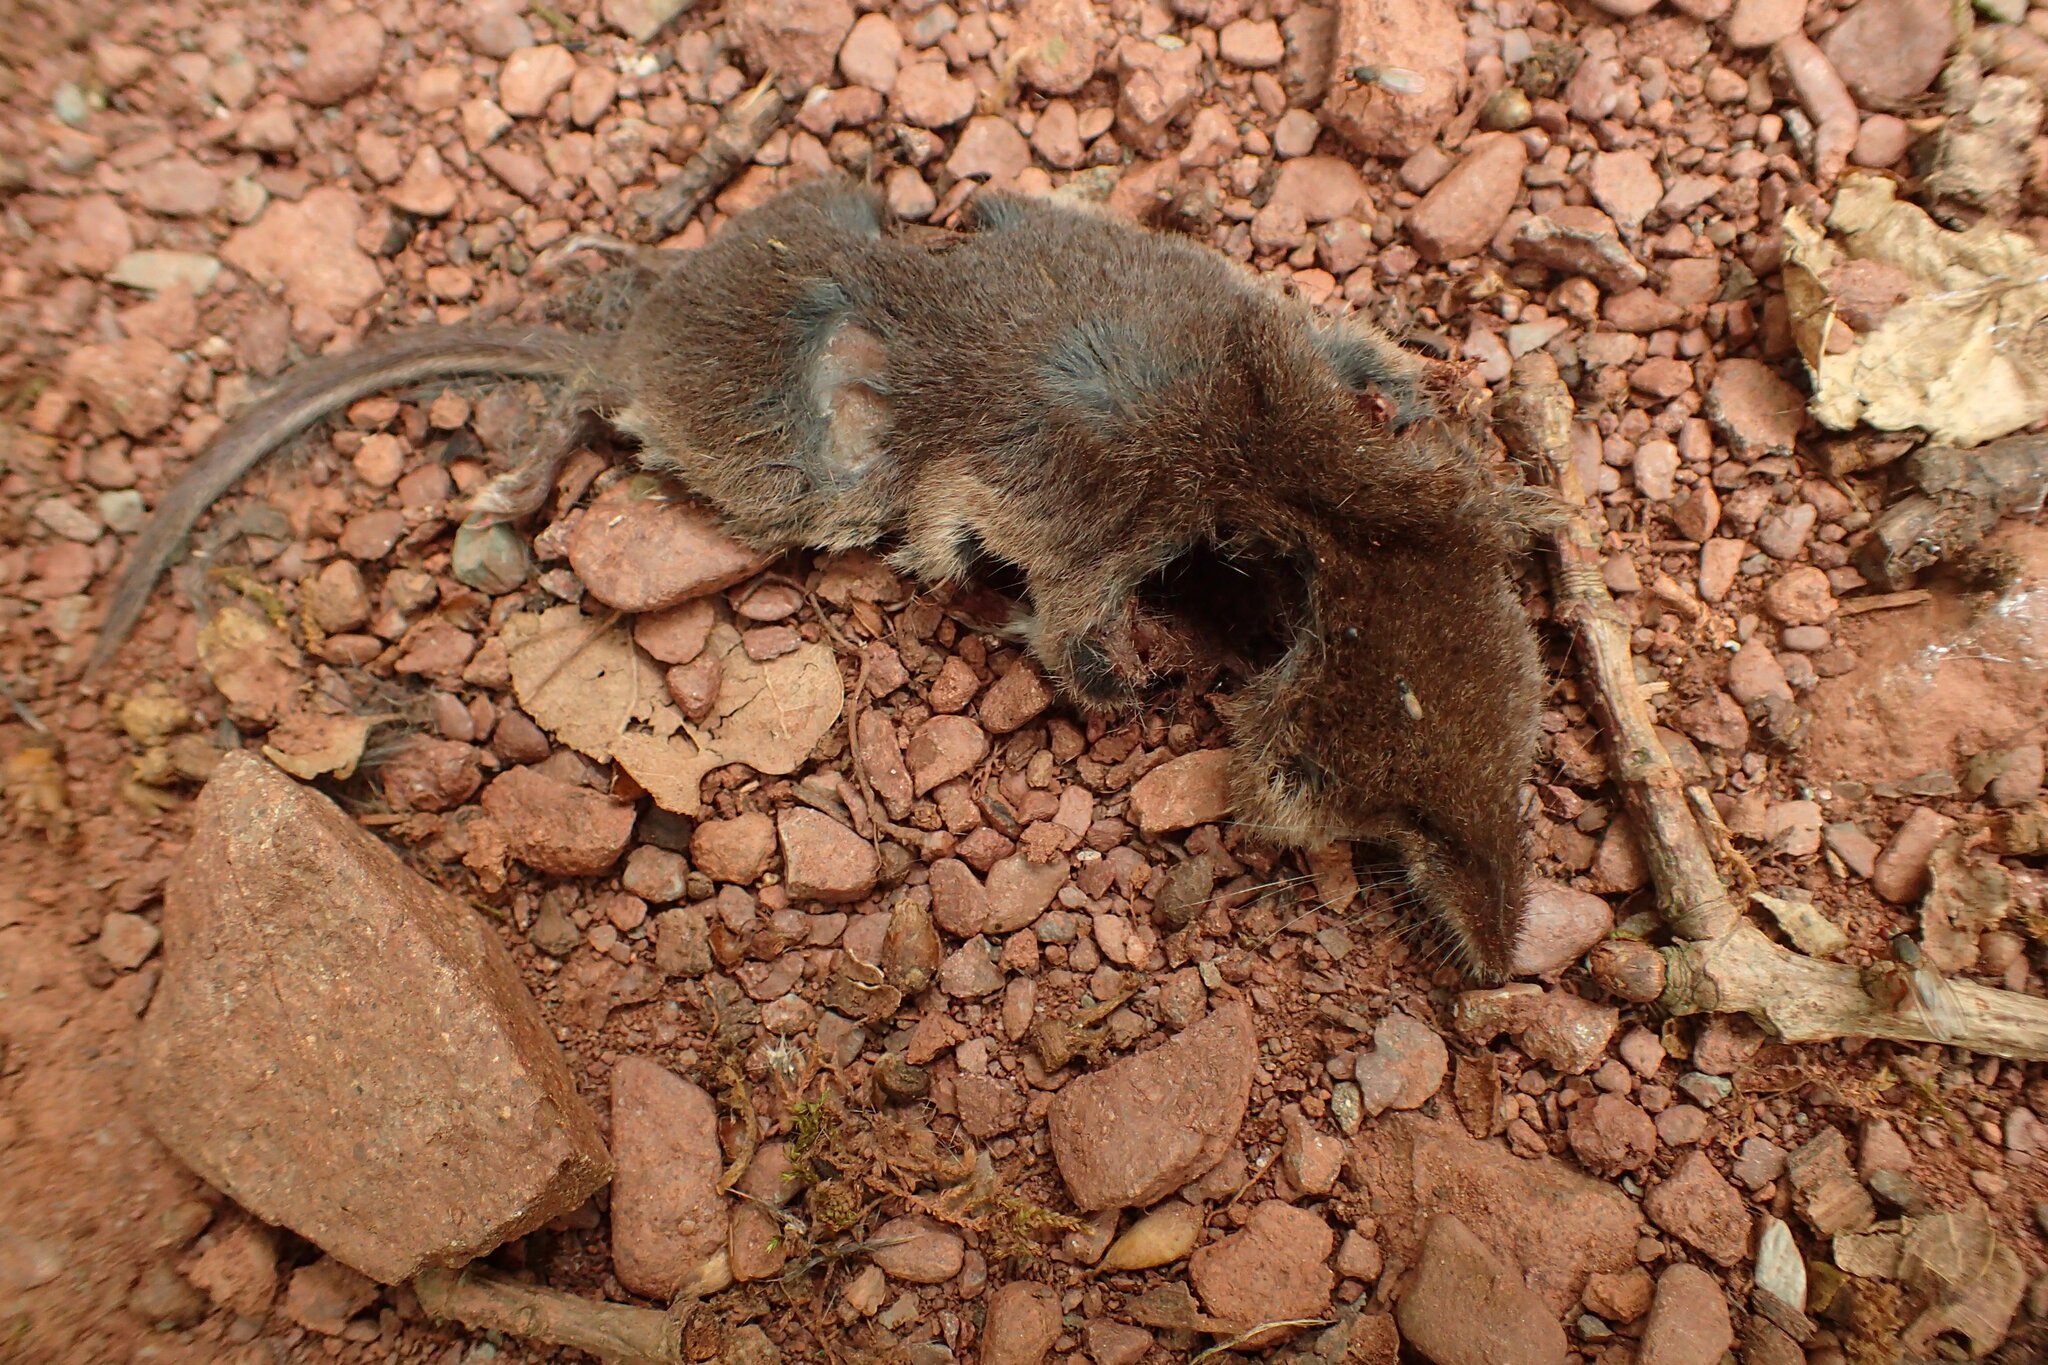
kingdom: Animalia
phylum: Chordata
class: Mammalia
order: Soricomorpha
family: Soricidae
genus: Sorex
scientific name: Sorex araneus
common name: Common shrew
